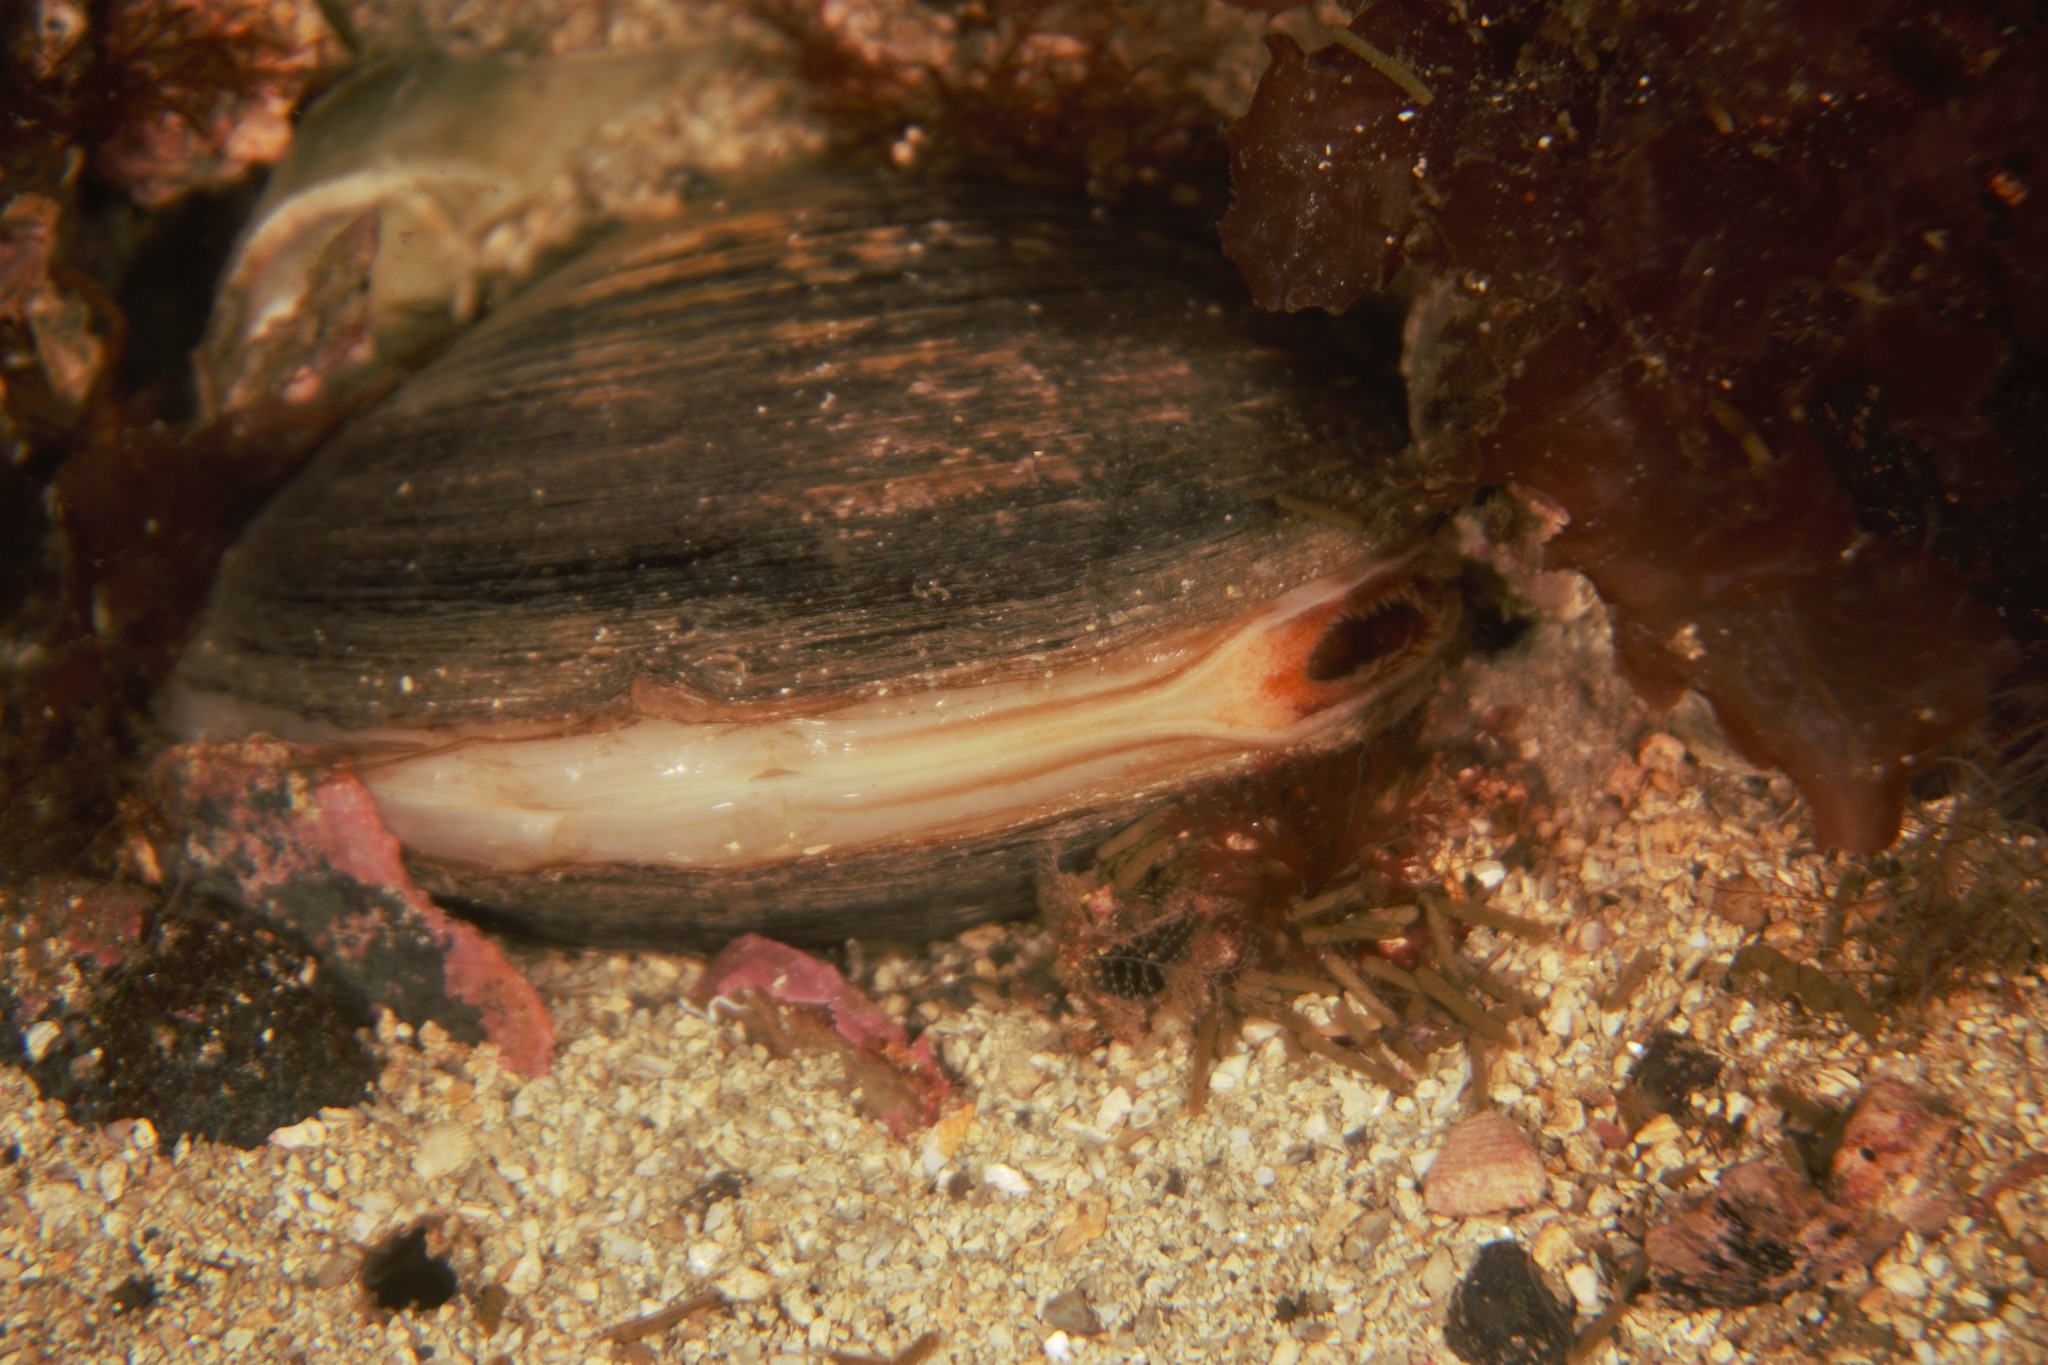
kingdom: Animalia
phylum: Mollusca
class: Bivalvia
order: Venerida
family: Arcticidae
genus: Arctica
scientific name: Arctica islandica
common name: Icelandic cyprine
